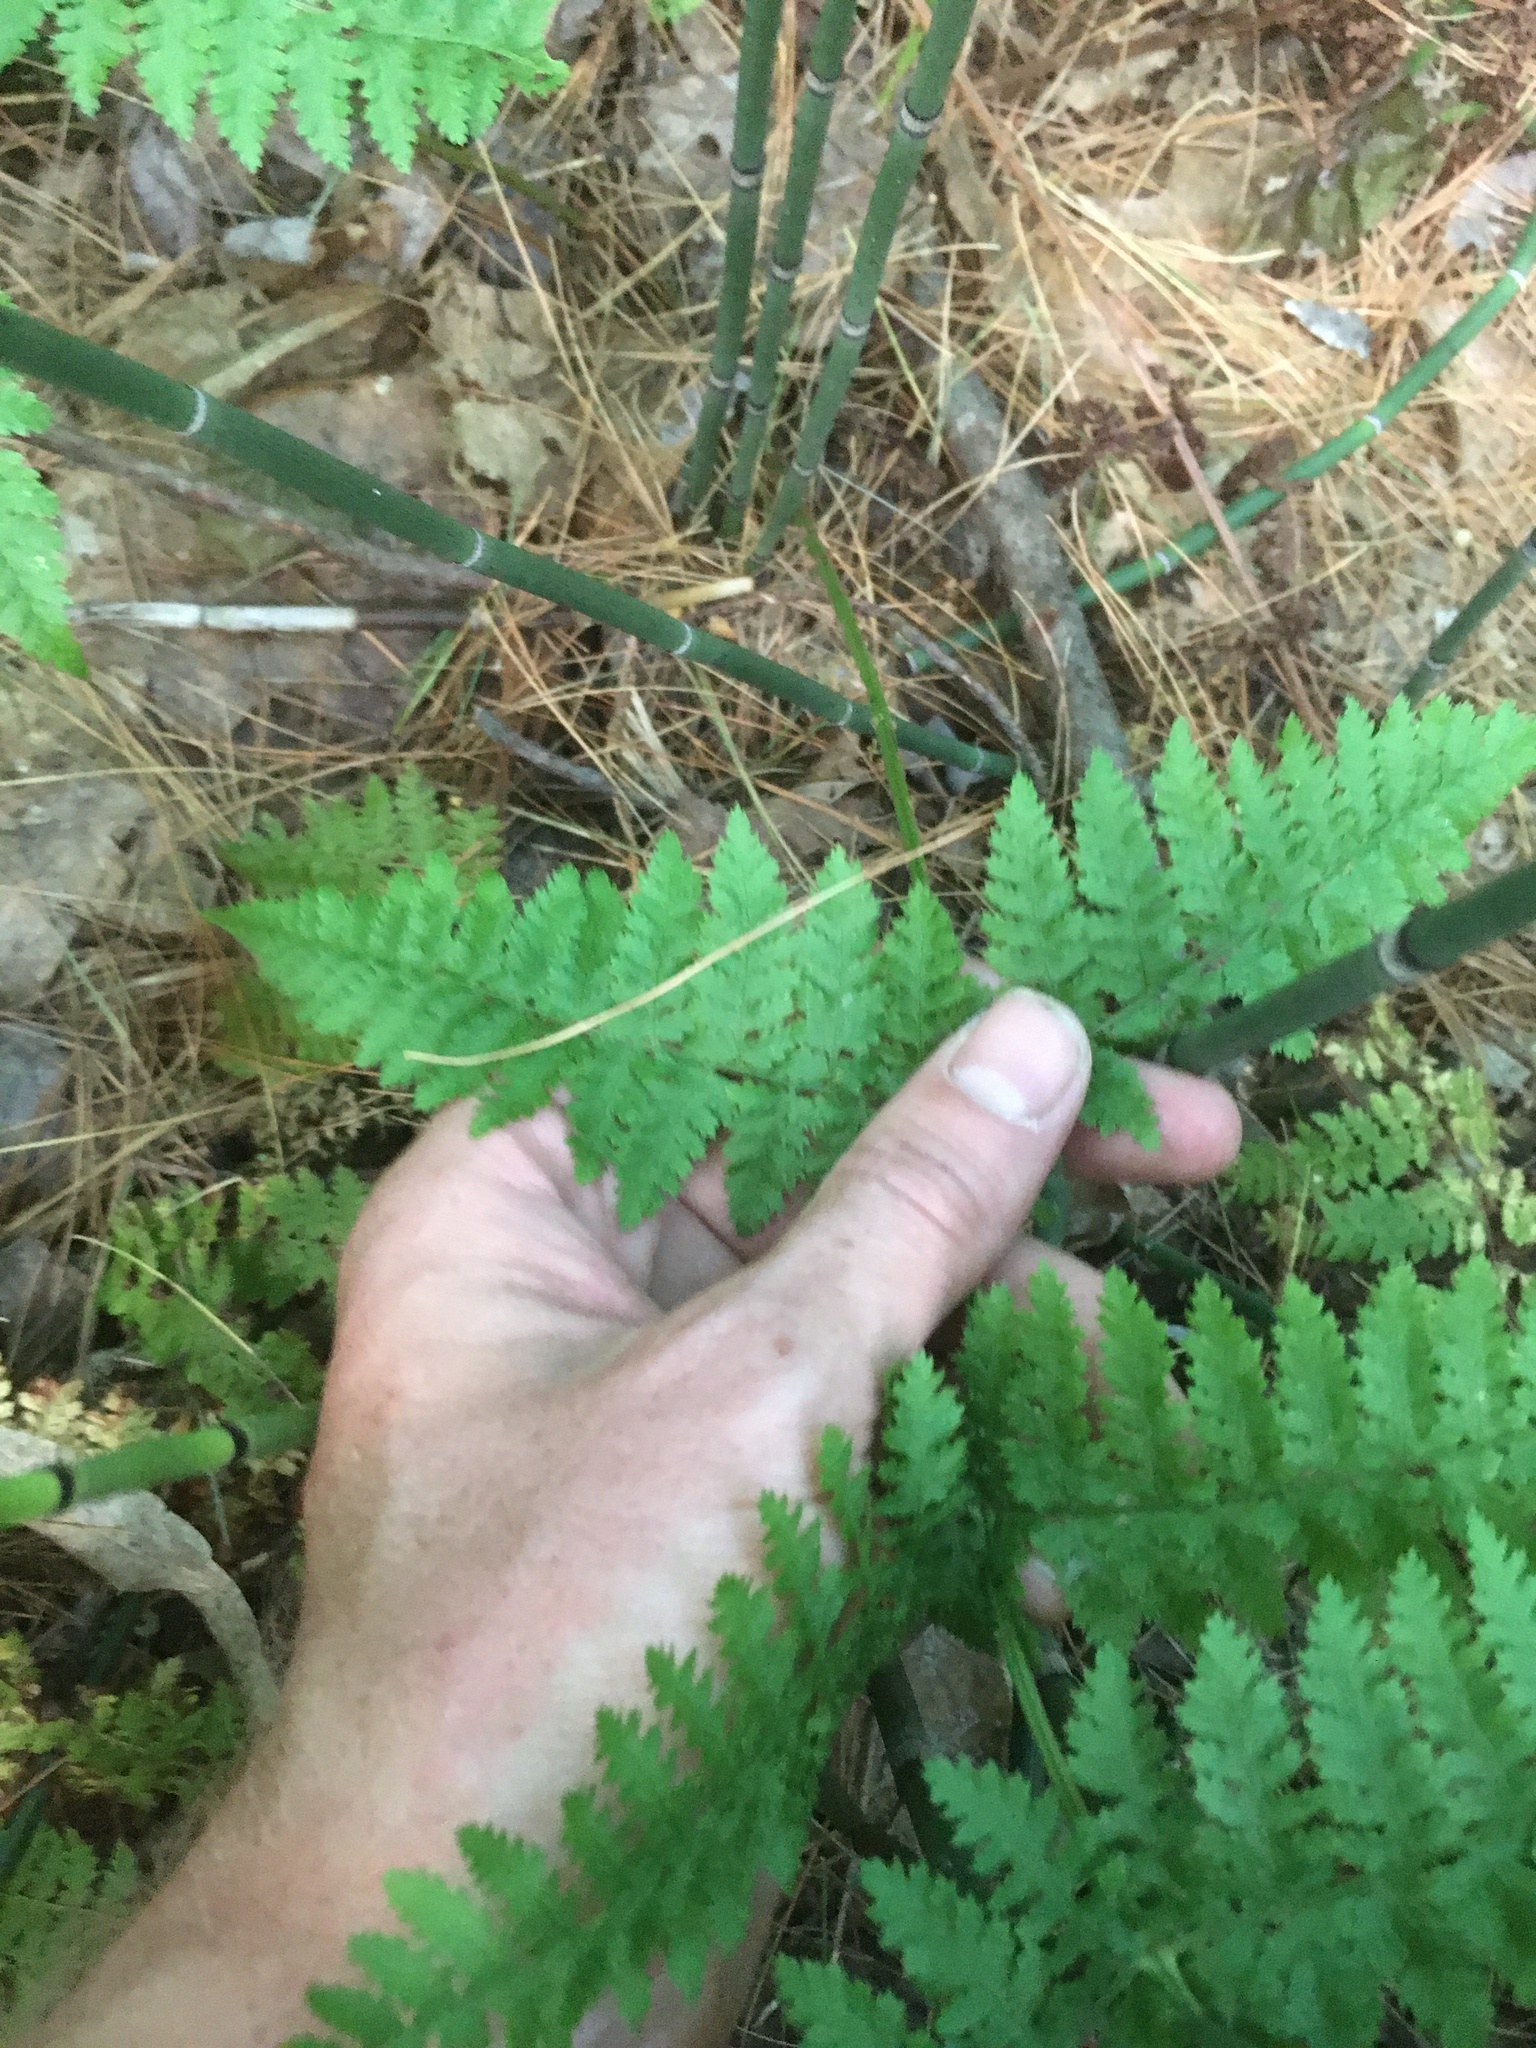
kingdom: Plantae
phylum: Tracheophyta
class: Polypodiopsida
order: Polypodiales
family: Dryopteridaceae
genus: Dryopteris
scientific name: Dryopteris intermedia
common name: Evergreen wood fern
